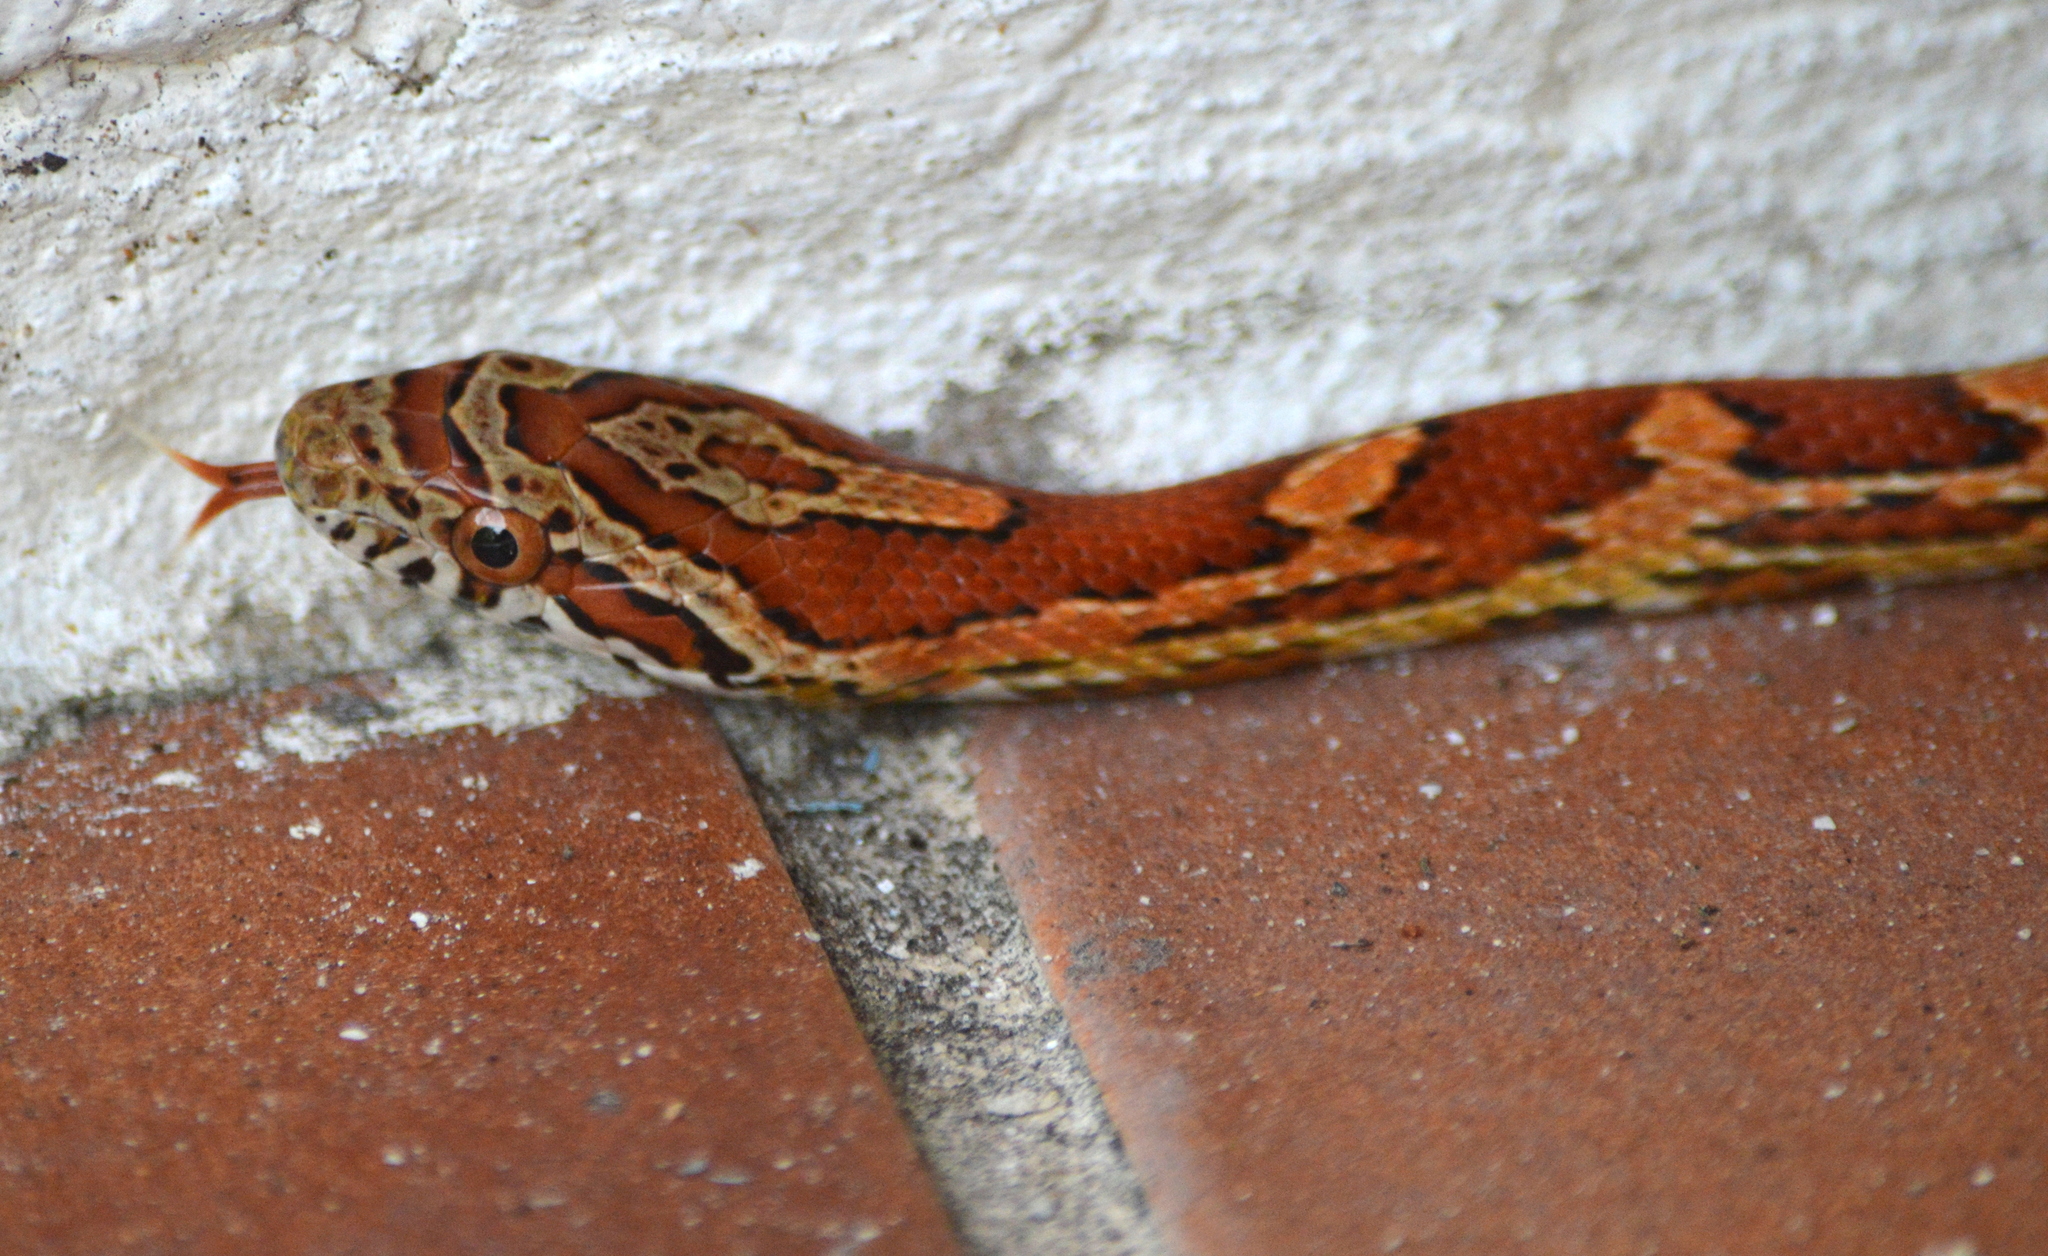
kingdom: Animalia
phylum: Chordata
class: Squamata
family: Colubridae
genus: Pantherophis
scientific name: Pantherophis guttatus
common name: Red cornsnake
